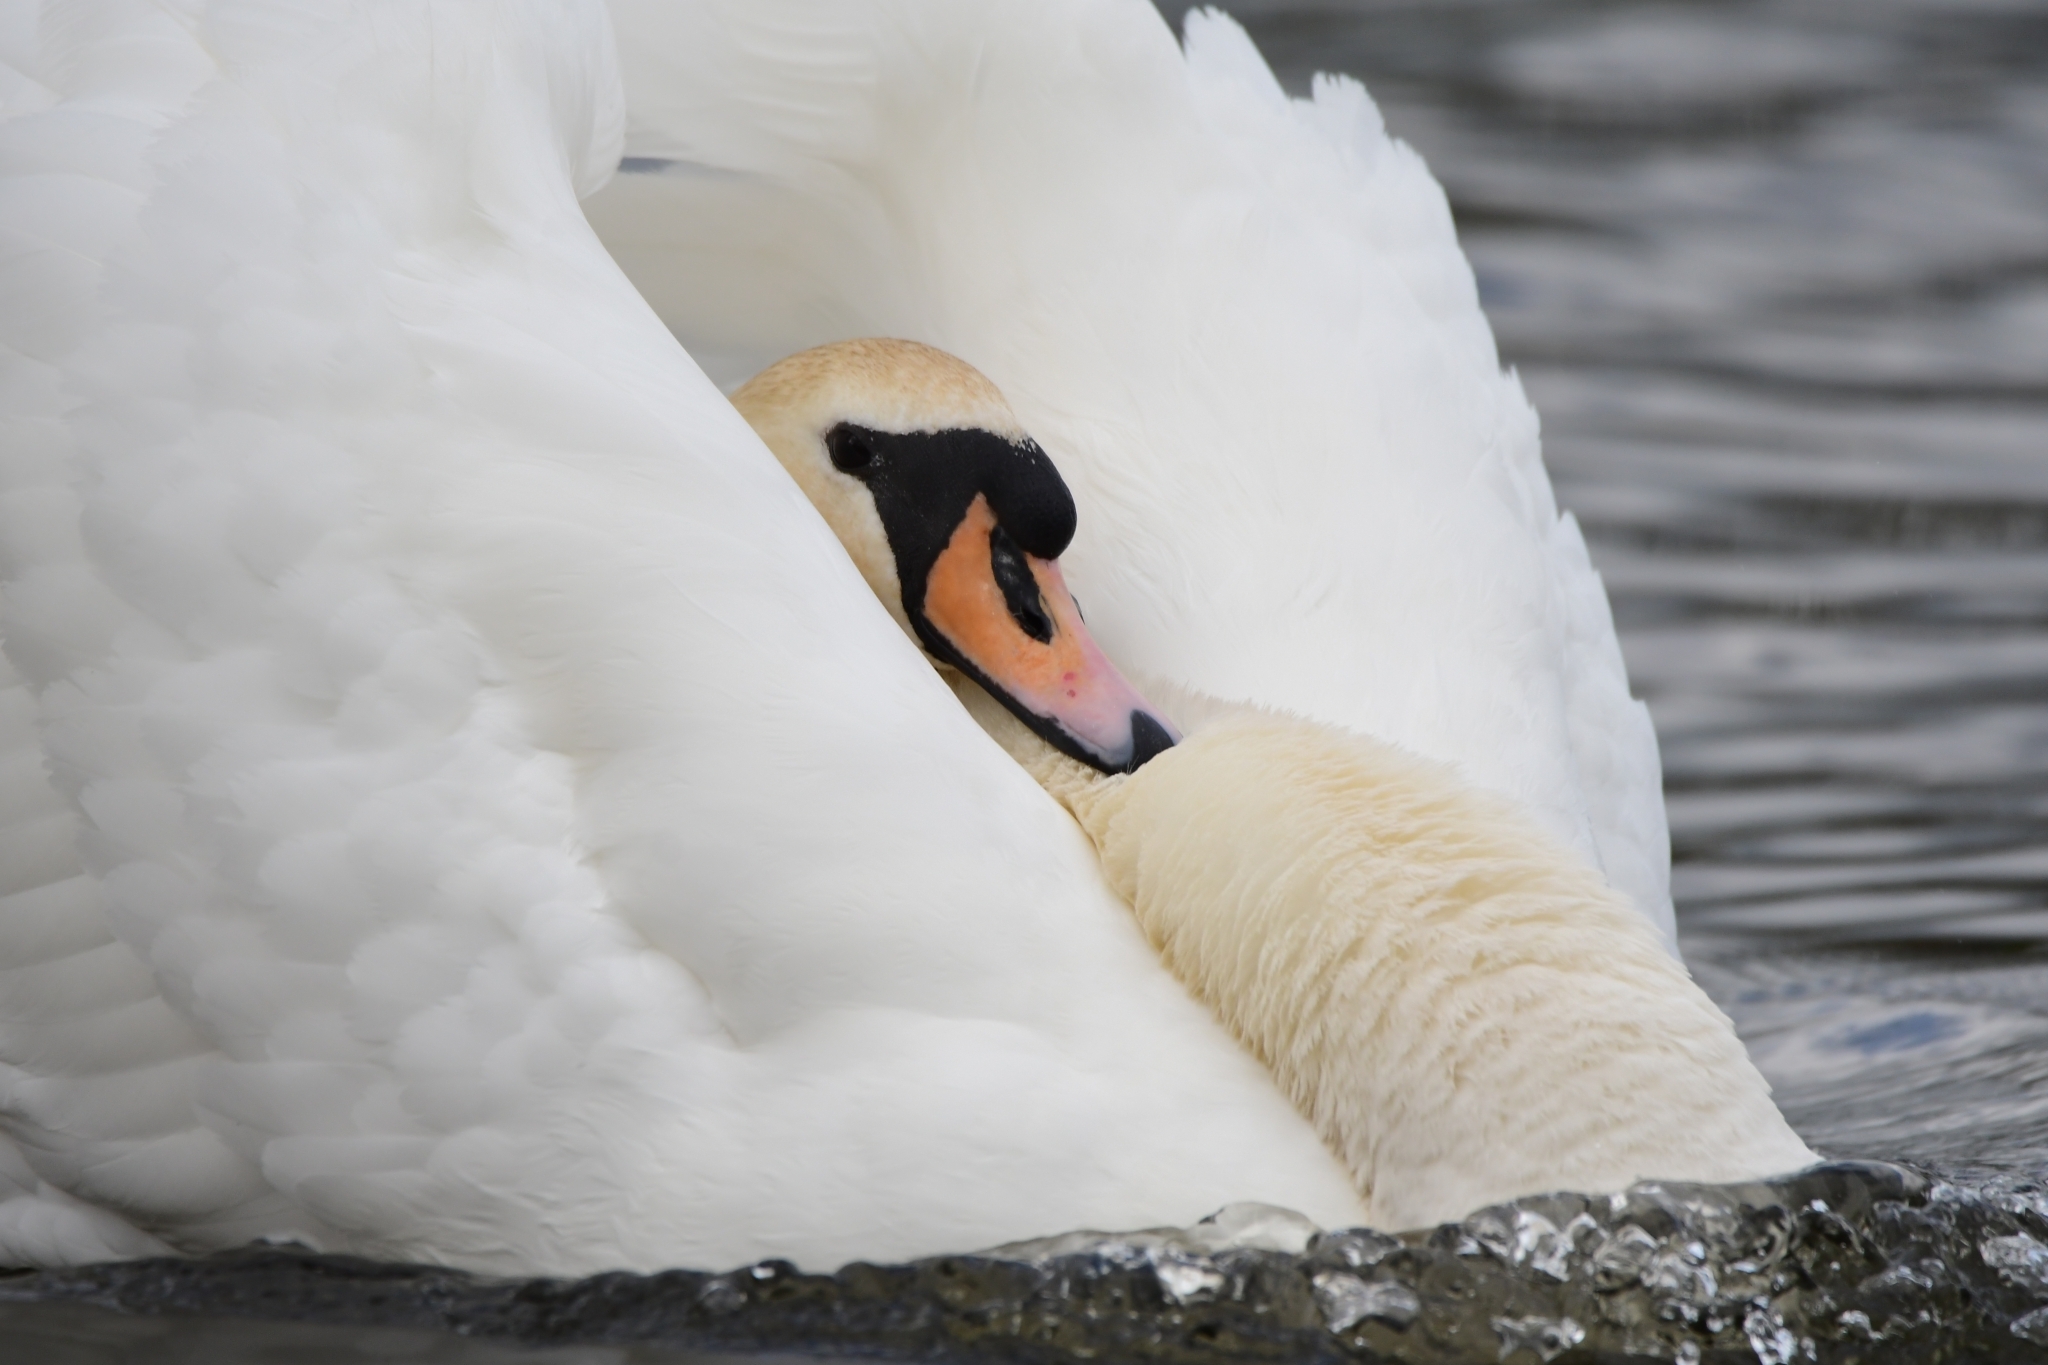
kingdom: Animalia
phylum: Chordata
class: Aves
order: Anseriformes
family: Anatidae
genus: Cygnus
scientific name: Cygnus olor
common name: Mute swan
